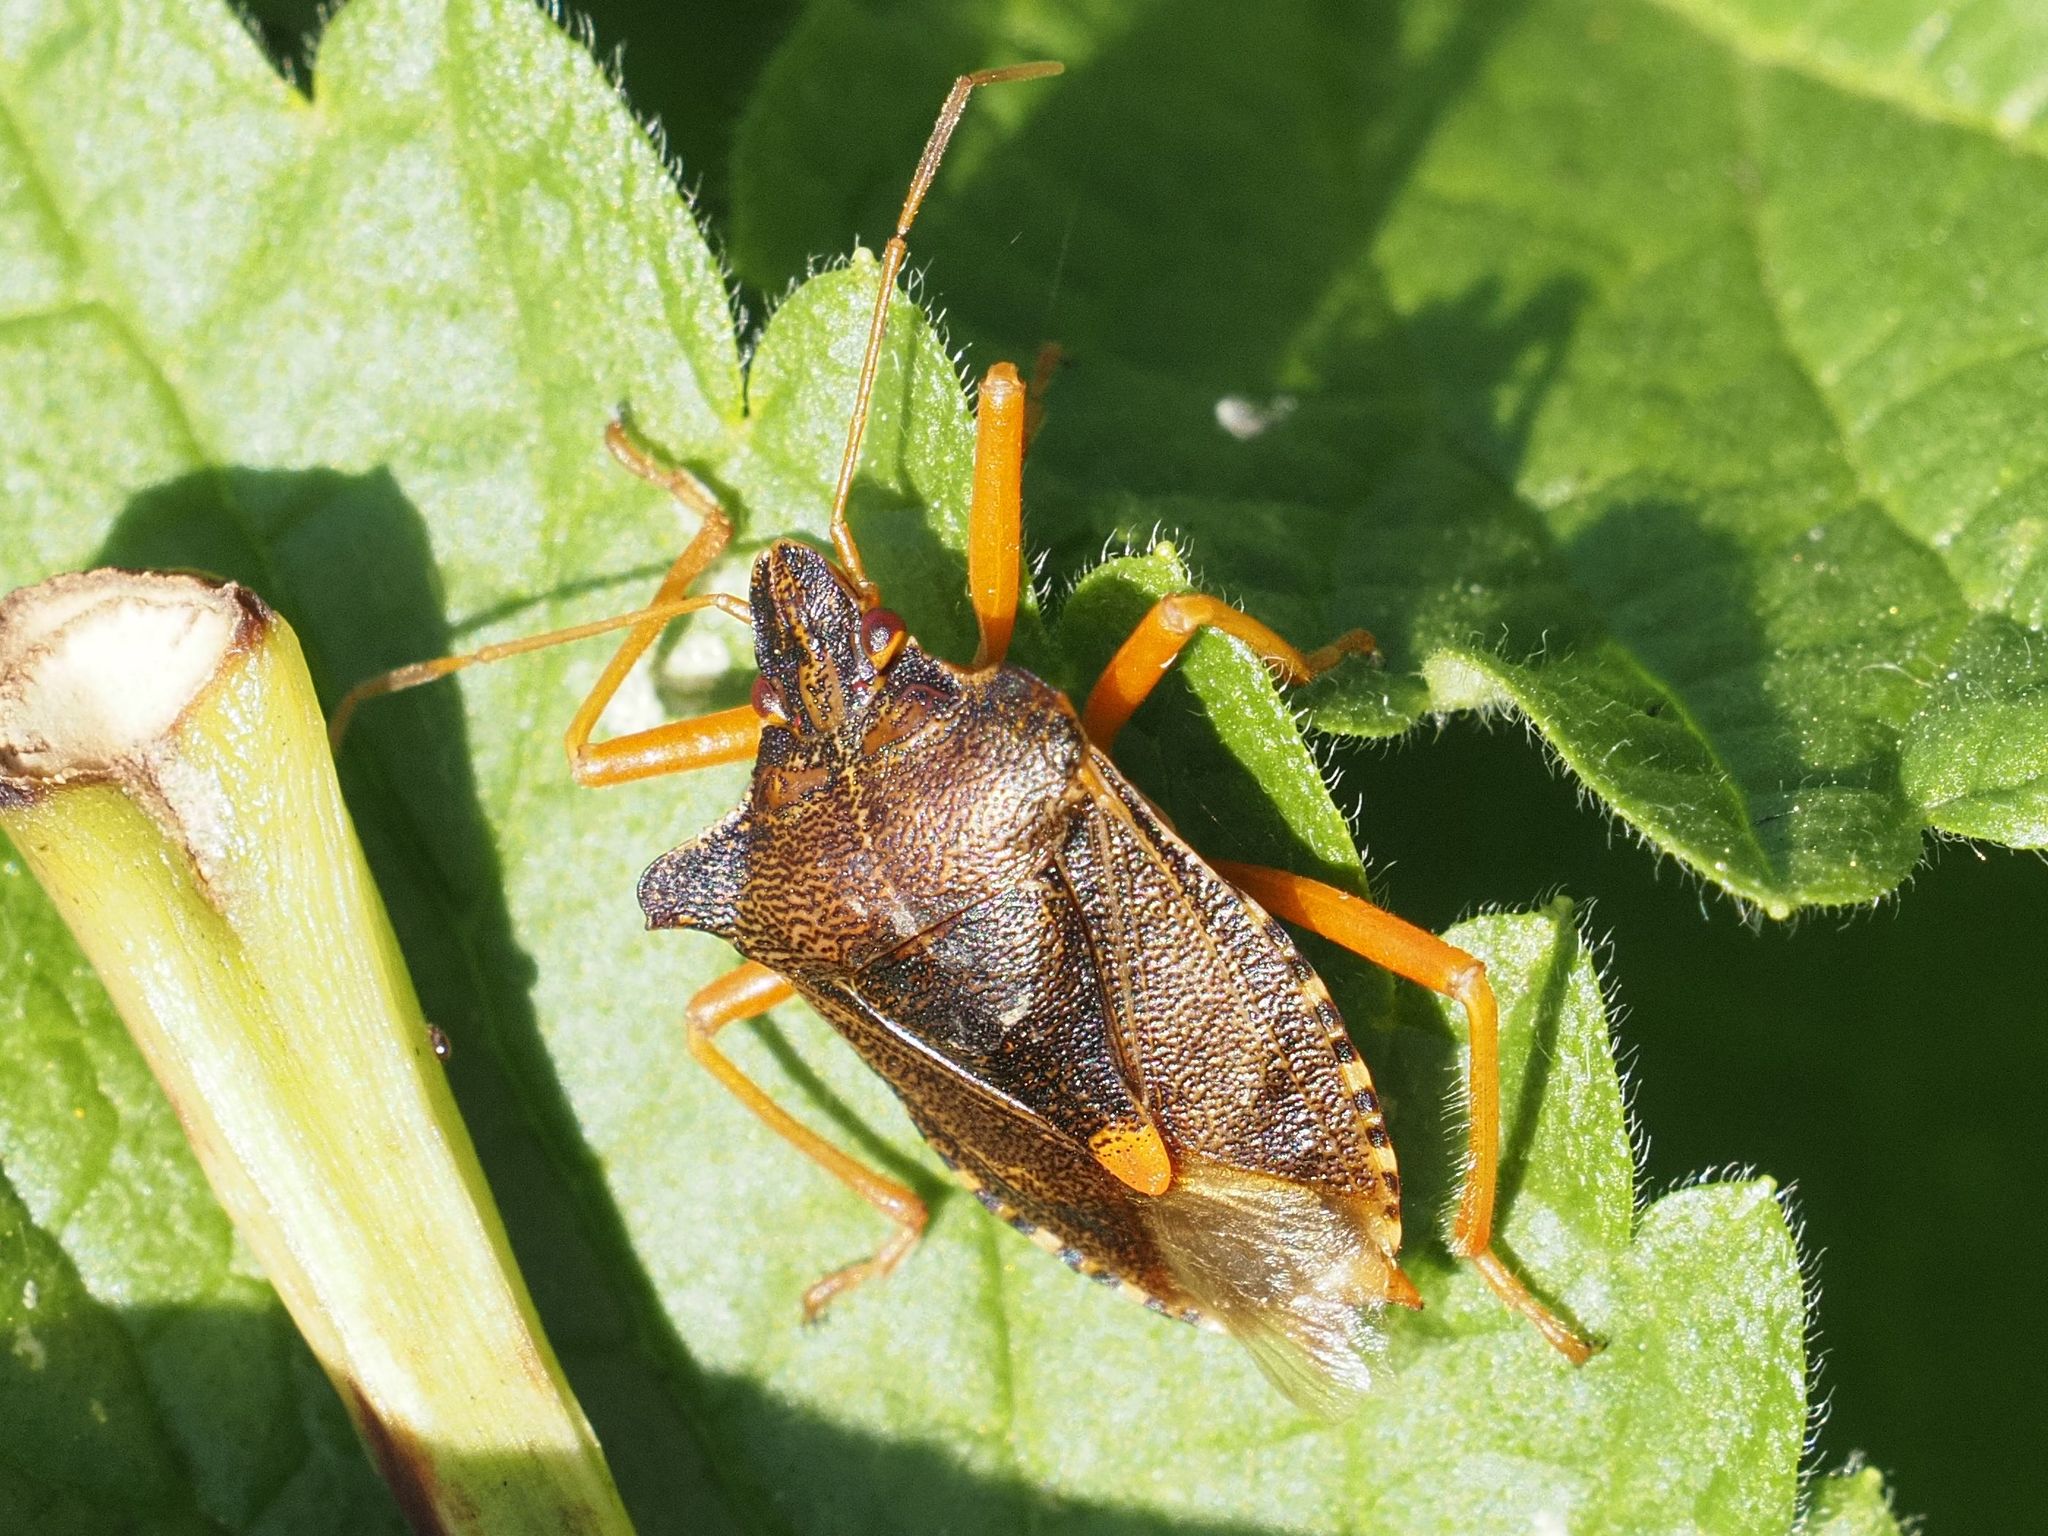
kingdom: Animalia
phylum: Arthropoda
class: Insecta
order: Hemiptera
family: Pentatomidae
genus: Pentatoma
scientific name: Pentatoma rufipes
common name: Forest bug
